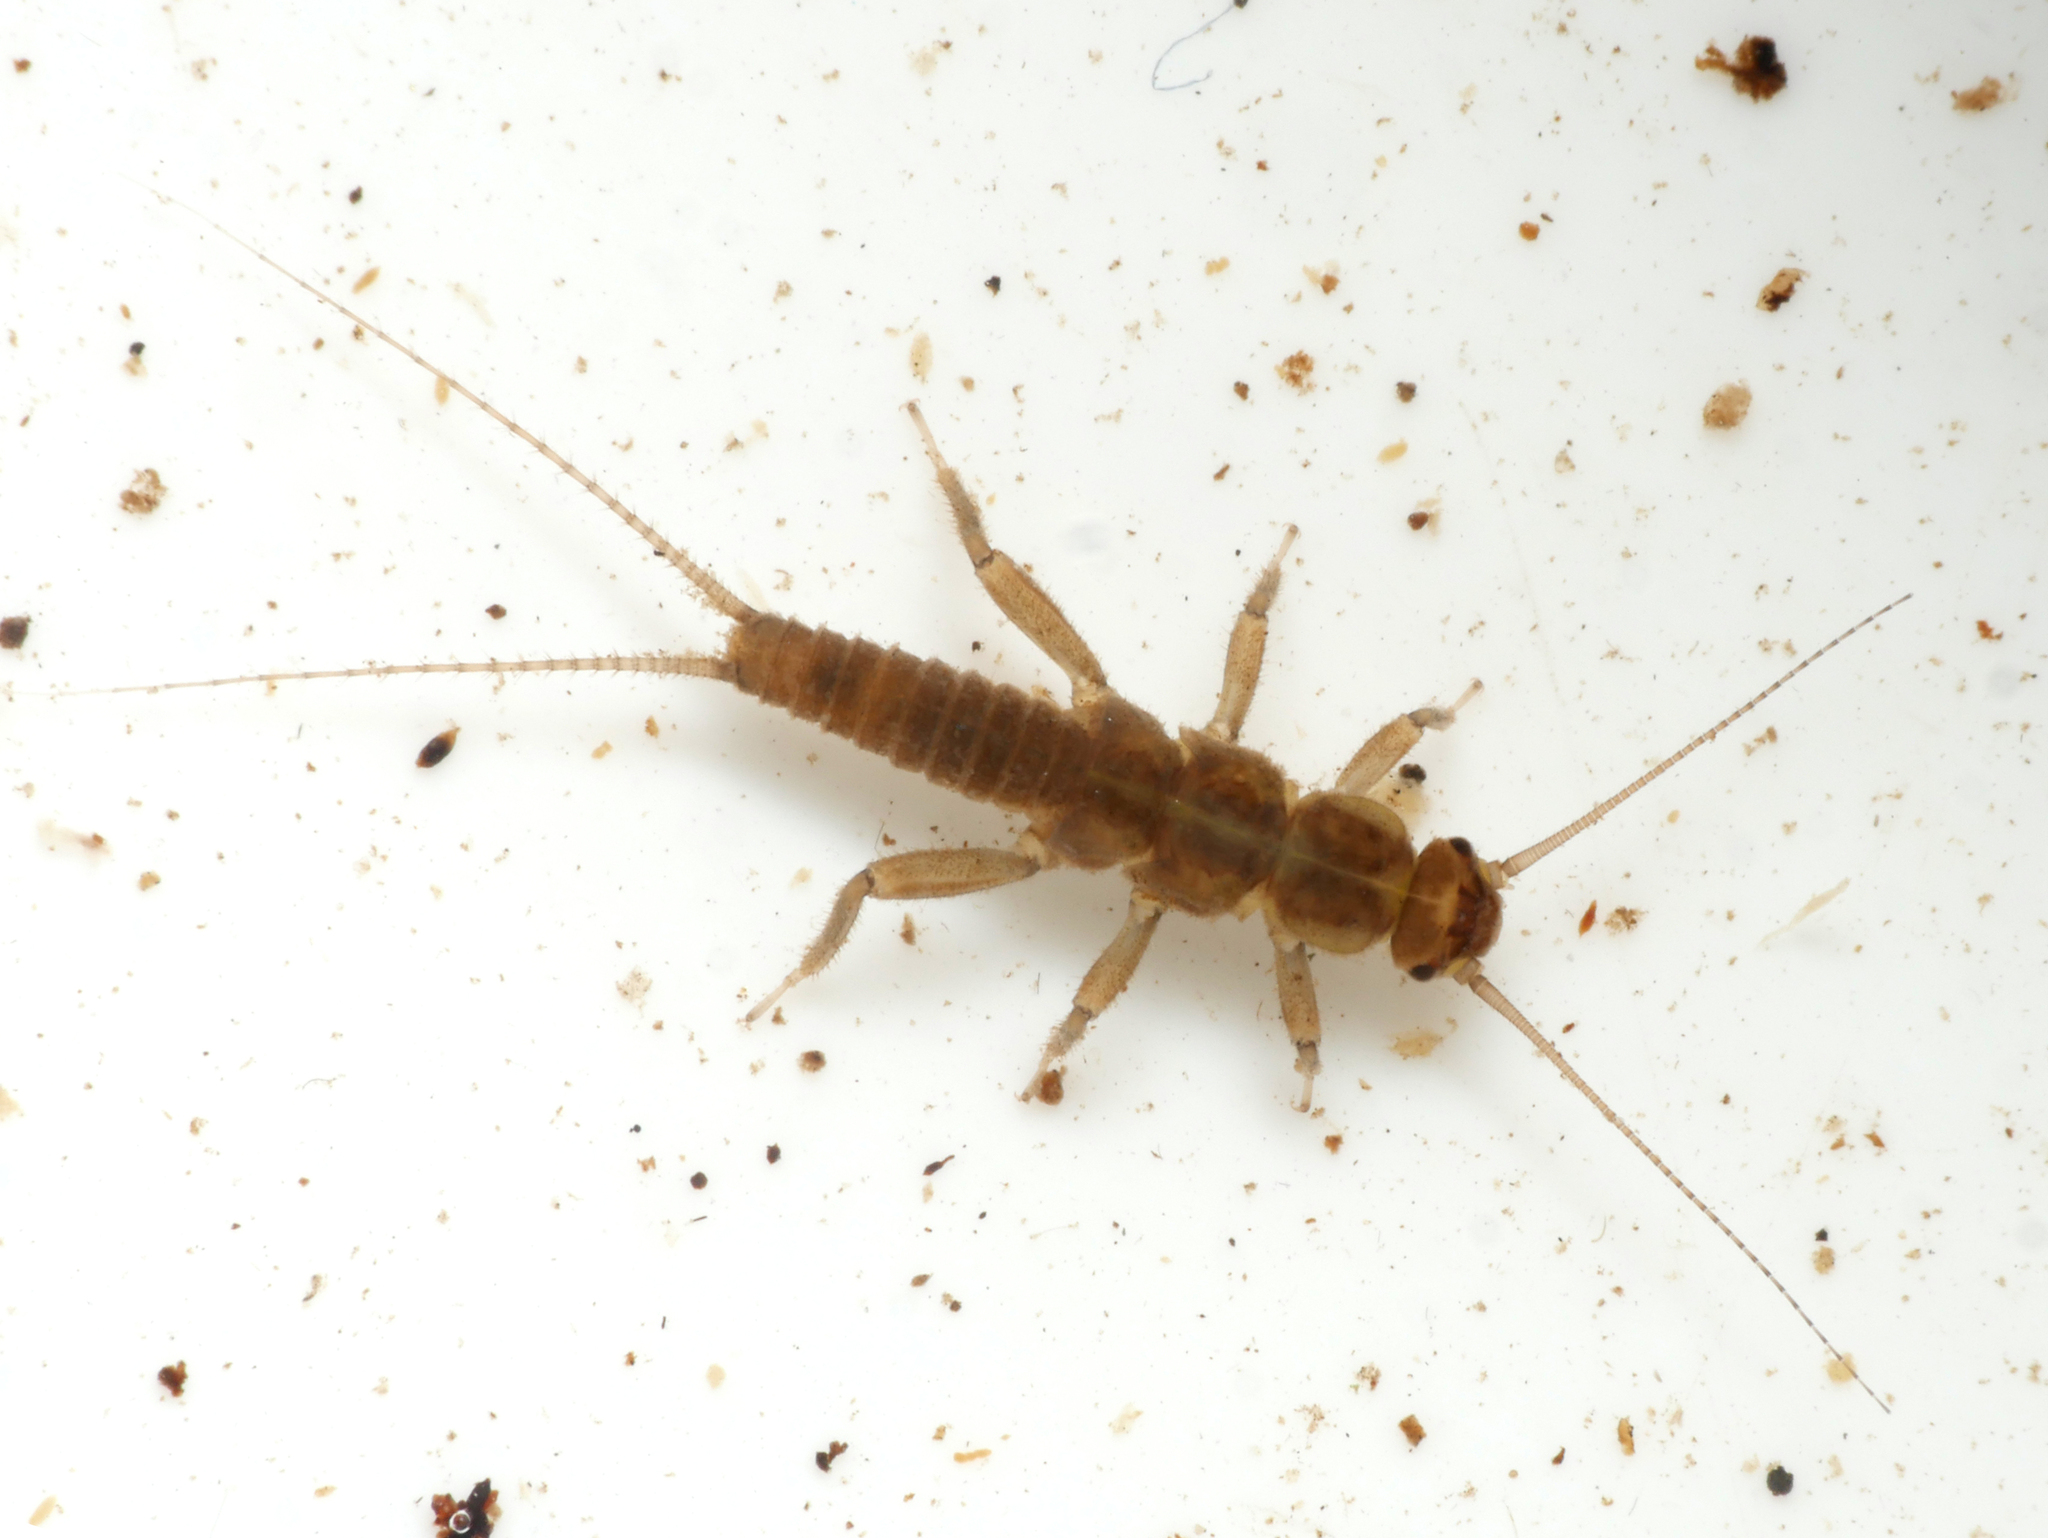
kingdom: Animalia
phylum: Arthropoda
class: Insecta
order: Plecoptera
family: Nemouridae
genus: Nemurella
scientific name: Nemurella pictetii
